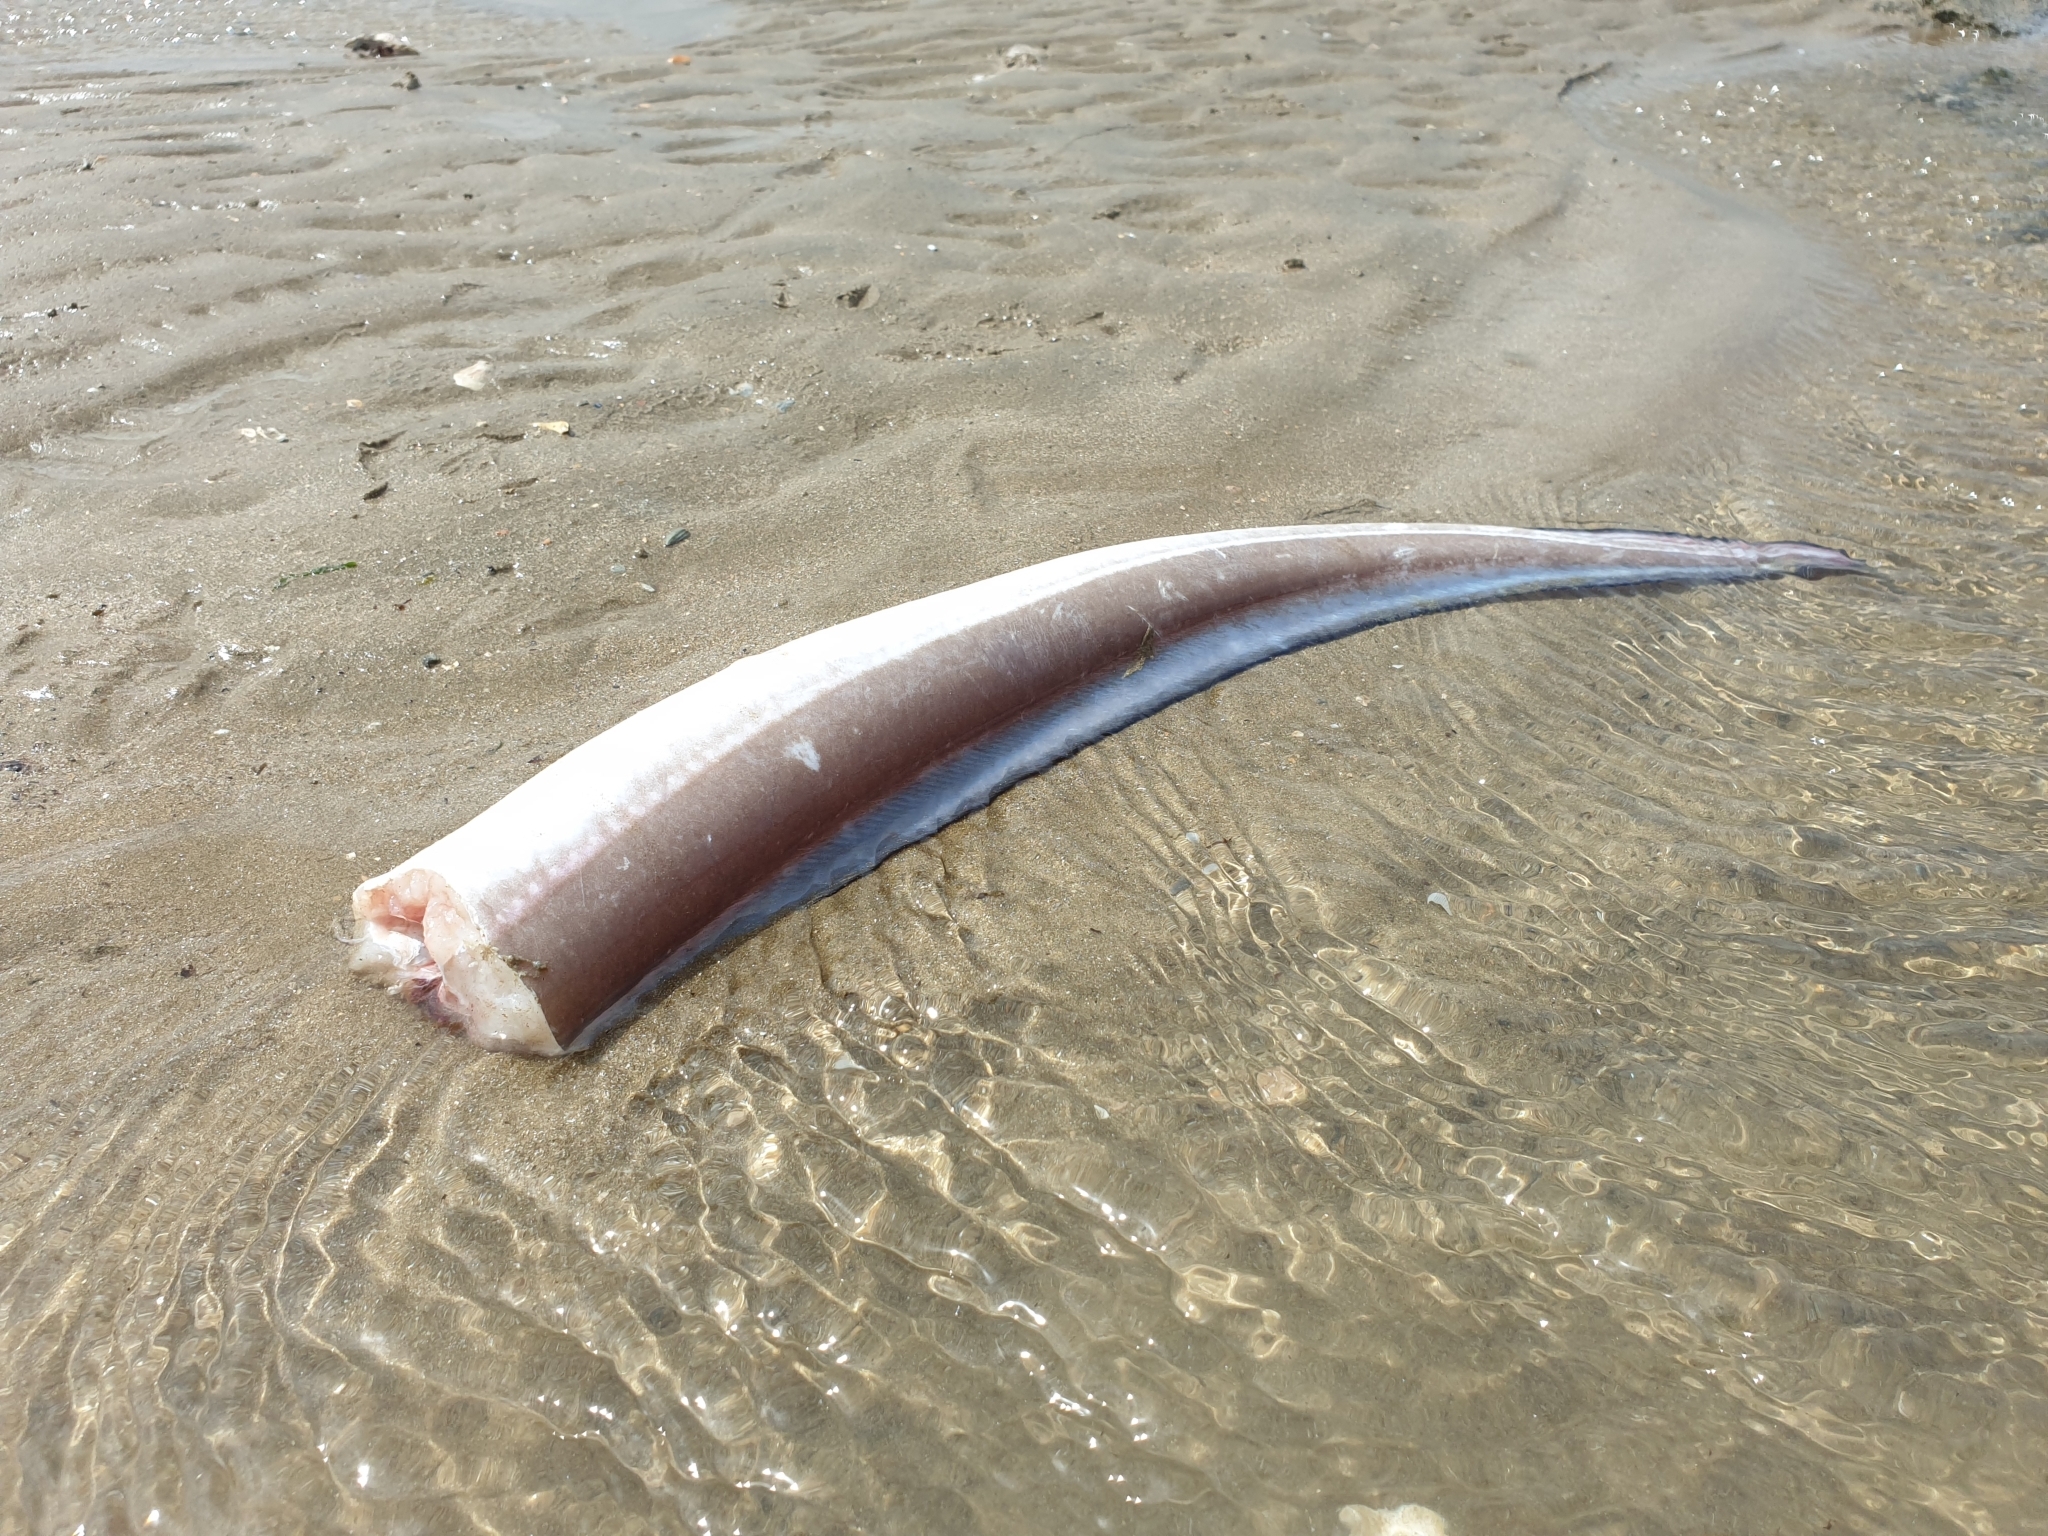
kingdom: Animalia
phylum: Chordata
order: Anguilliformes
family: Congridae
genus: Conger
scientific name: Conger conger
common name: Conger eel
